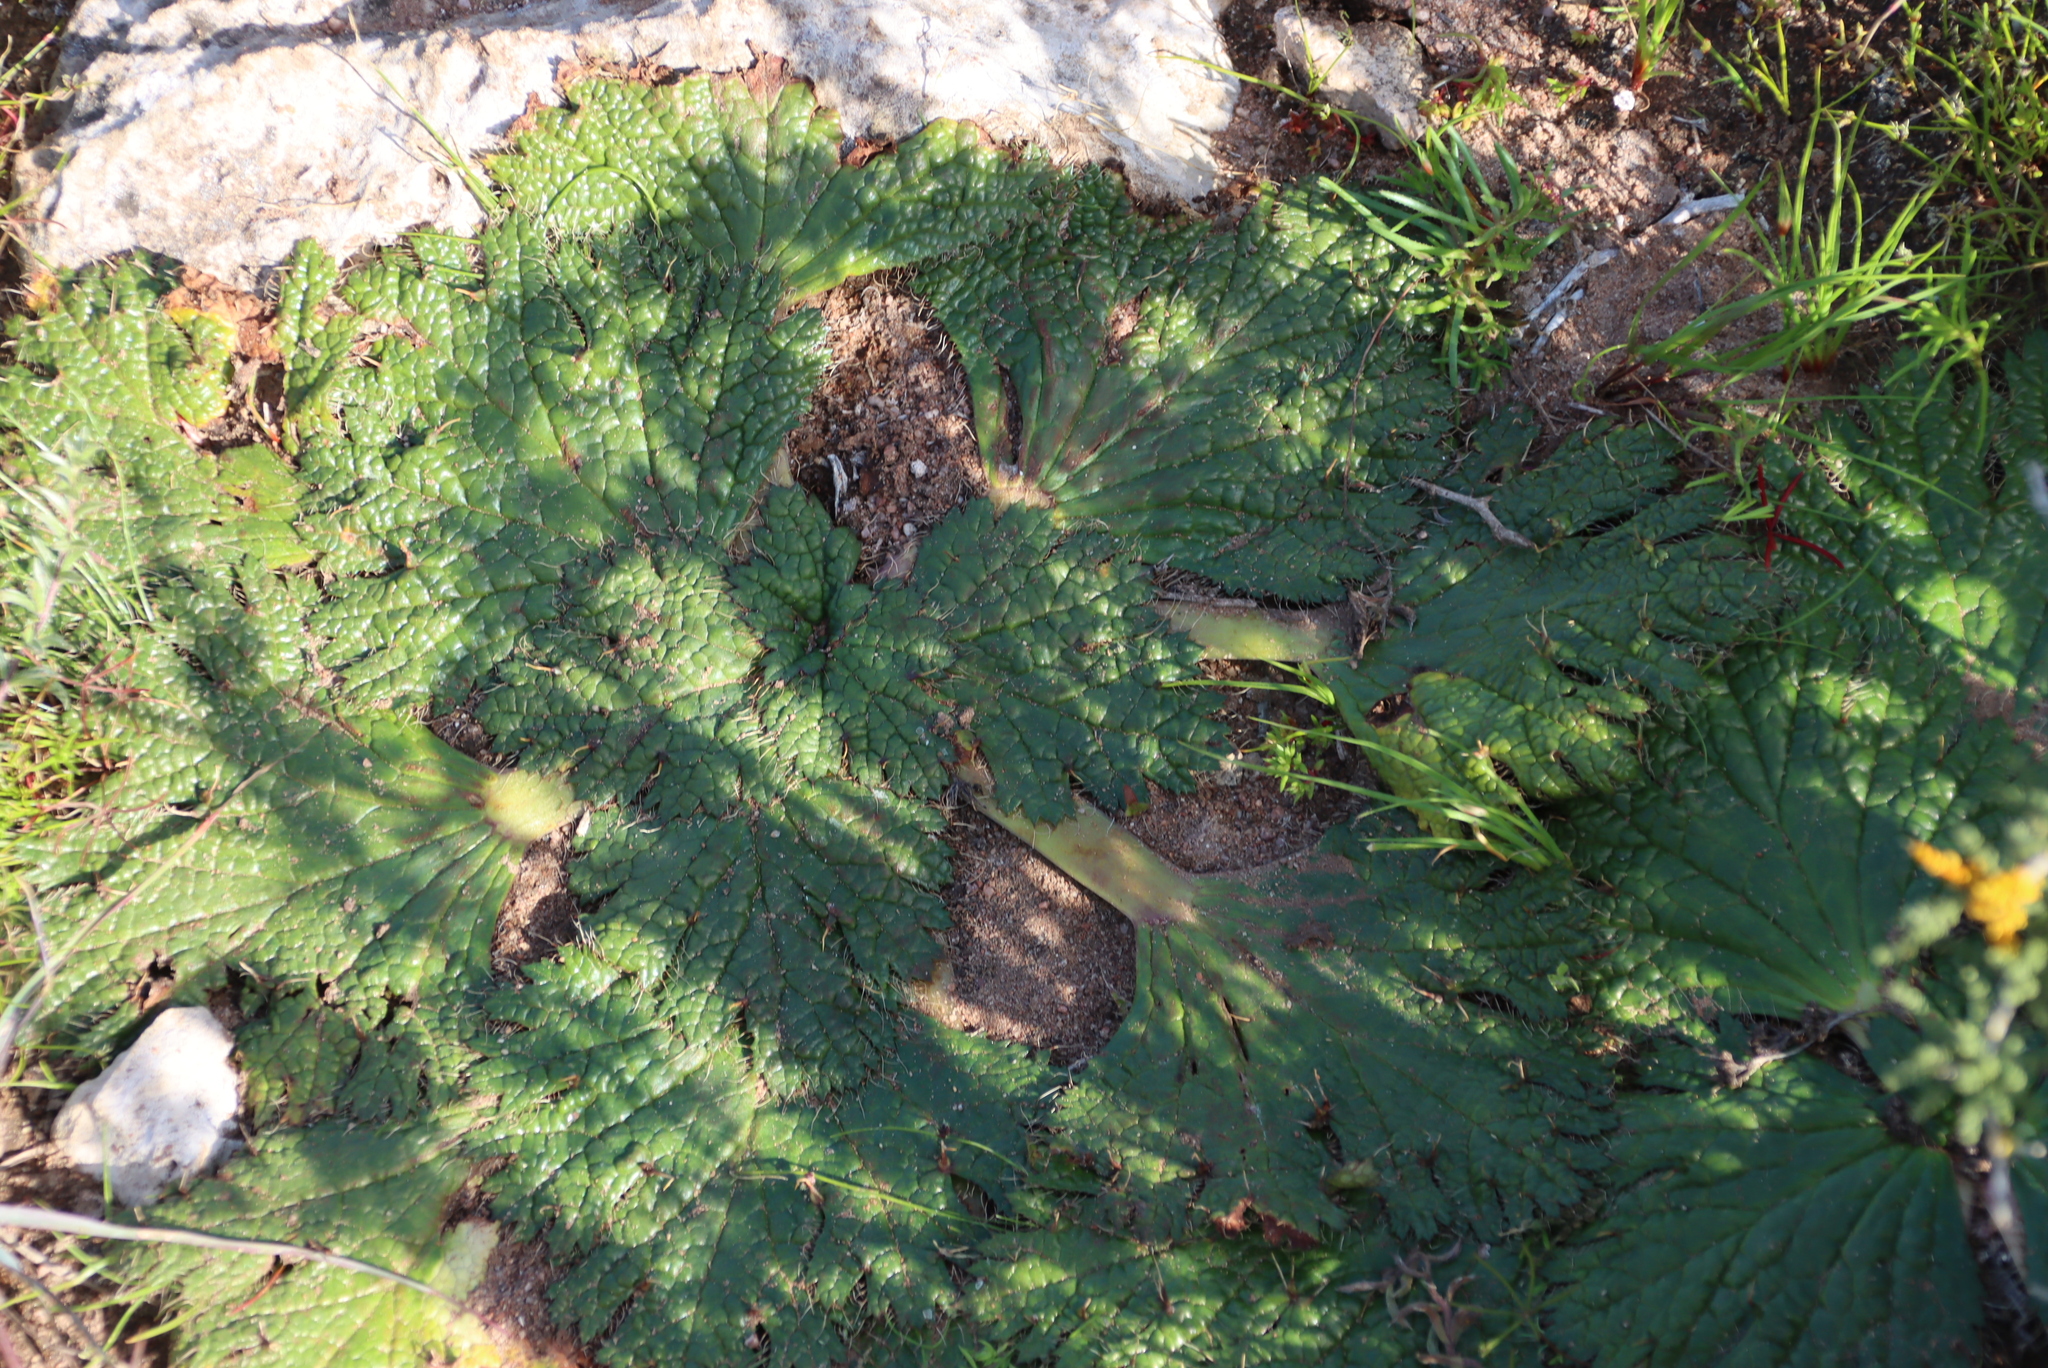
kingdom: Plantae
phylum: Tracheophyta
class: Magnoliopsida
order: Apiales
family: Apiaceae
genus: Arctopus
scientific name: Arctopus echinatus
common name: Platdoring
